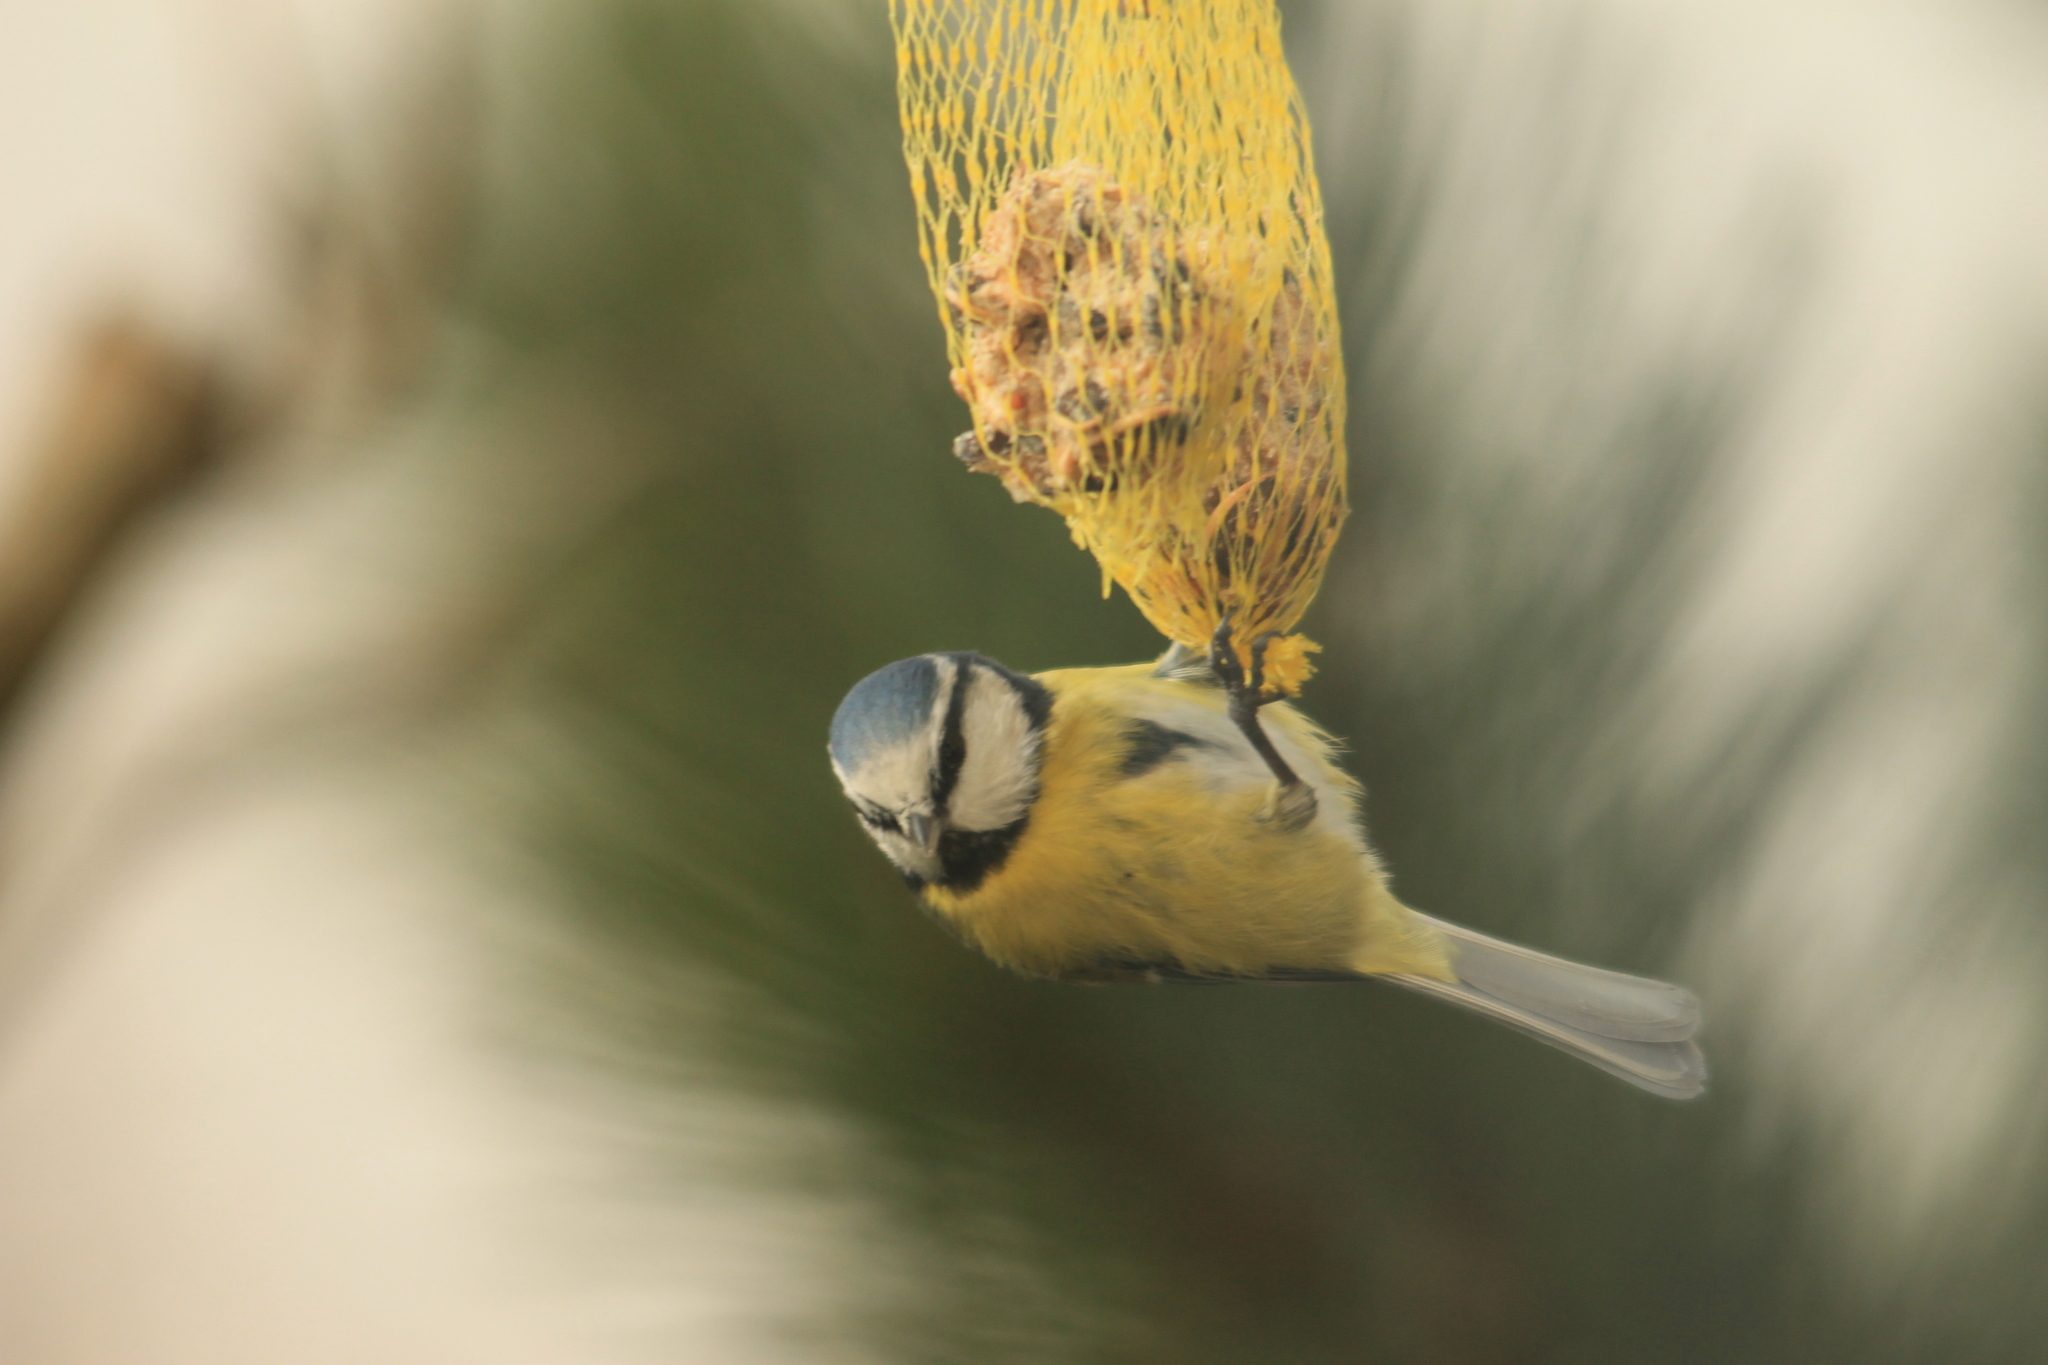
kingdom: Animalia
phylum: Chordata
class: Aves
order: Passeriformes
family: Paridae
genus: Cyanistes
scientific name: Cyanistes caeruleus
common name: Eurasian blue tit
